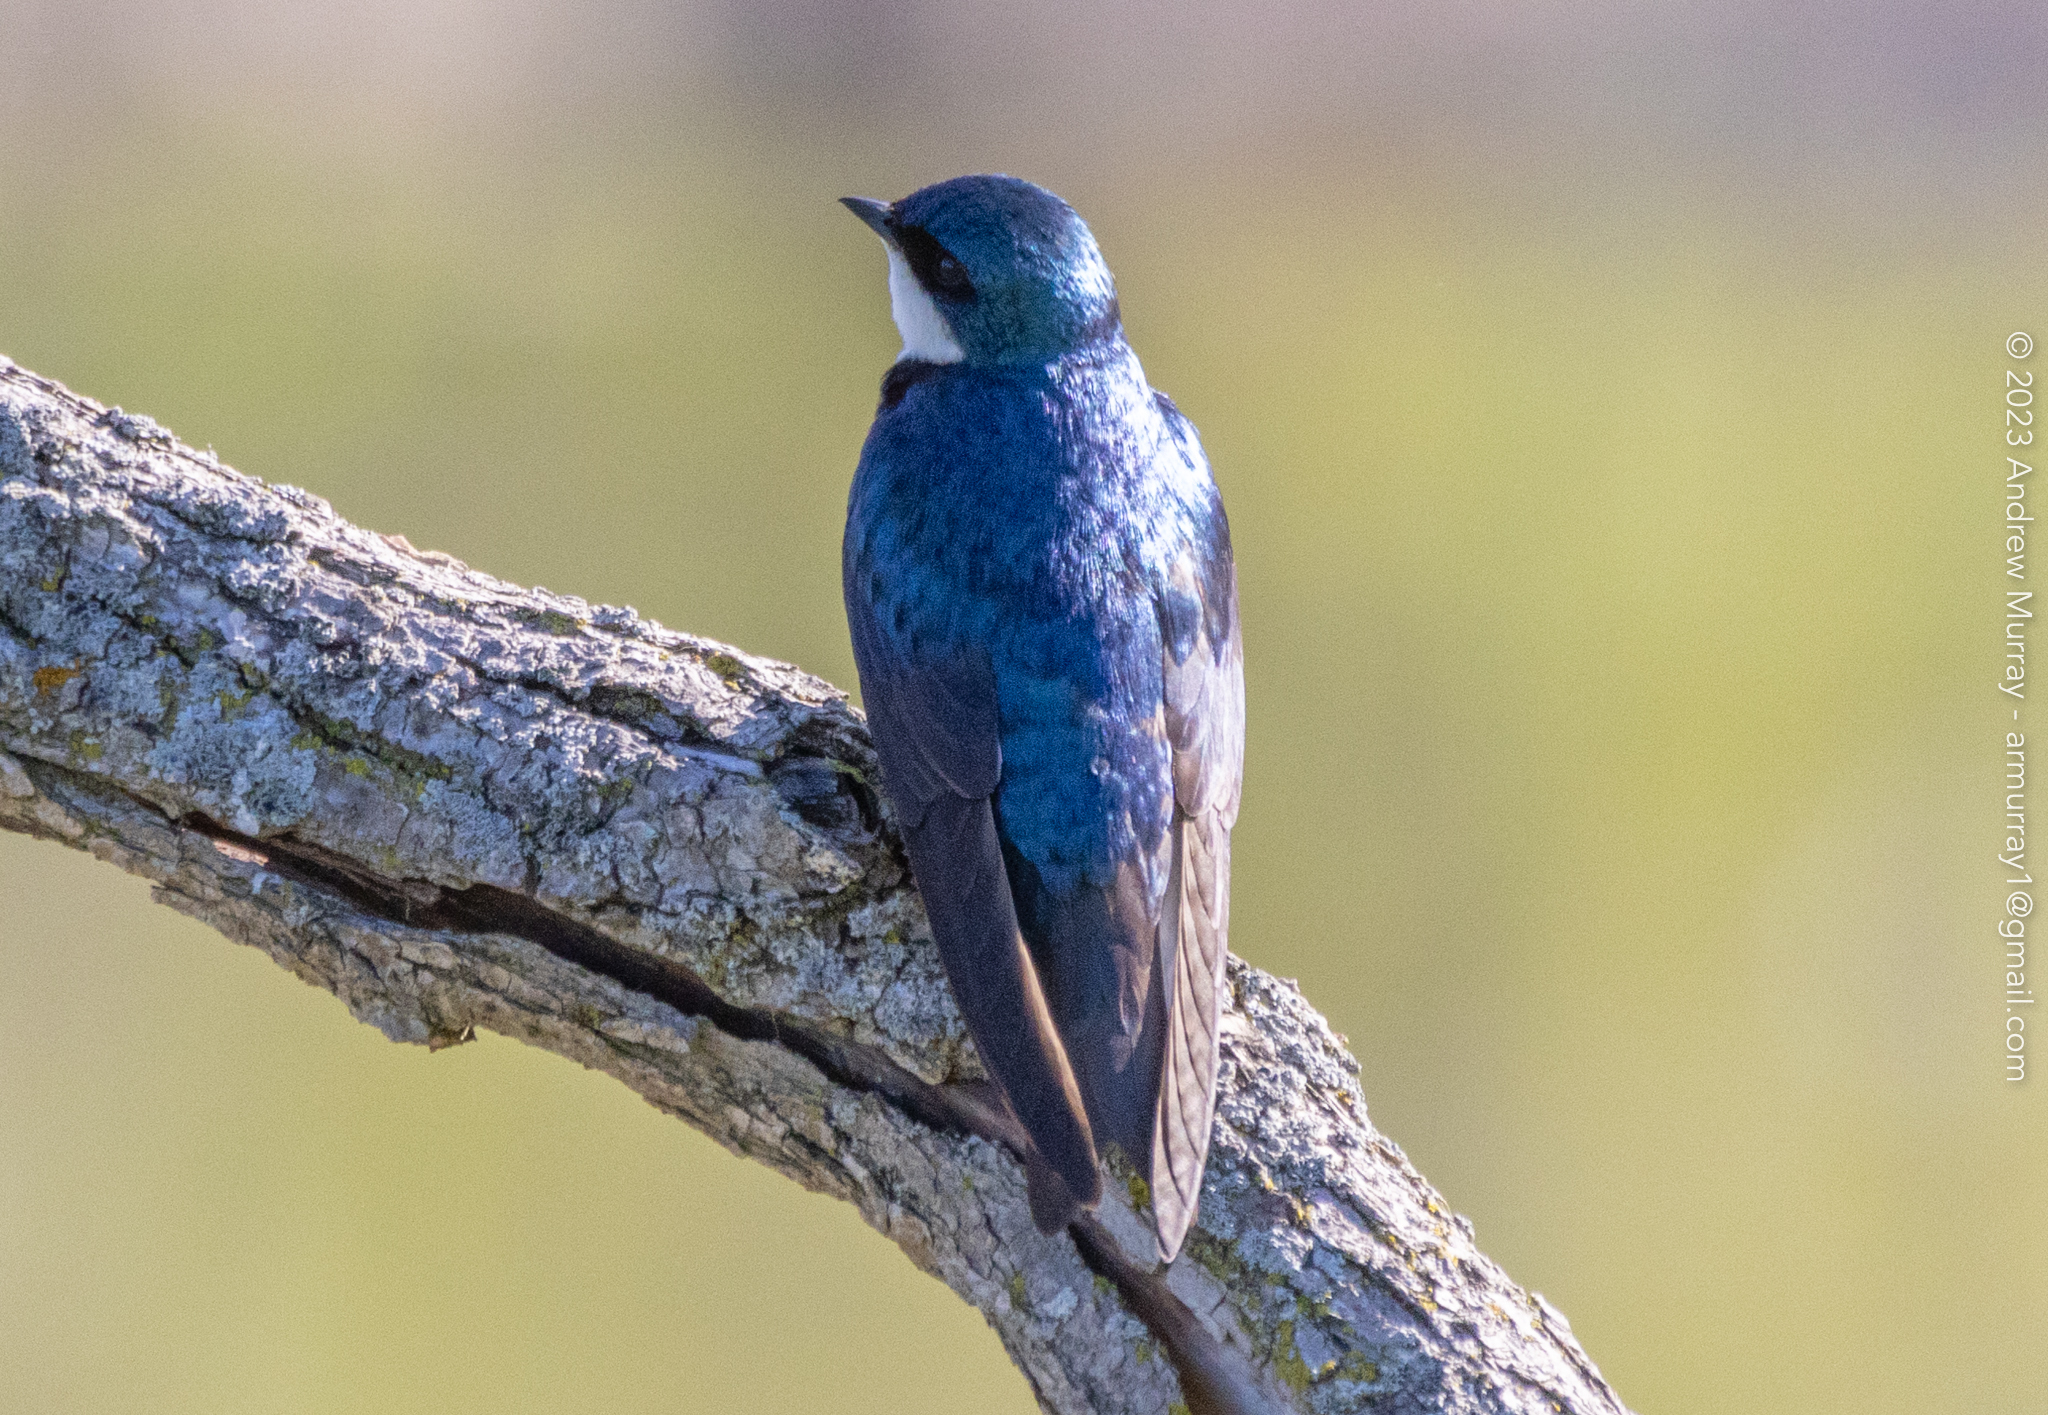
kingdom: Animalia
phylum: Chordata
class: Aves
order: Passeriformes
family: Hirundinidae
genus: Tachycineta
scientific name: Tachycineta bicolor
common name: Tree swallow
